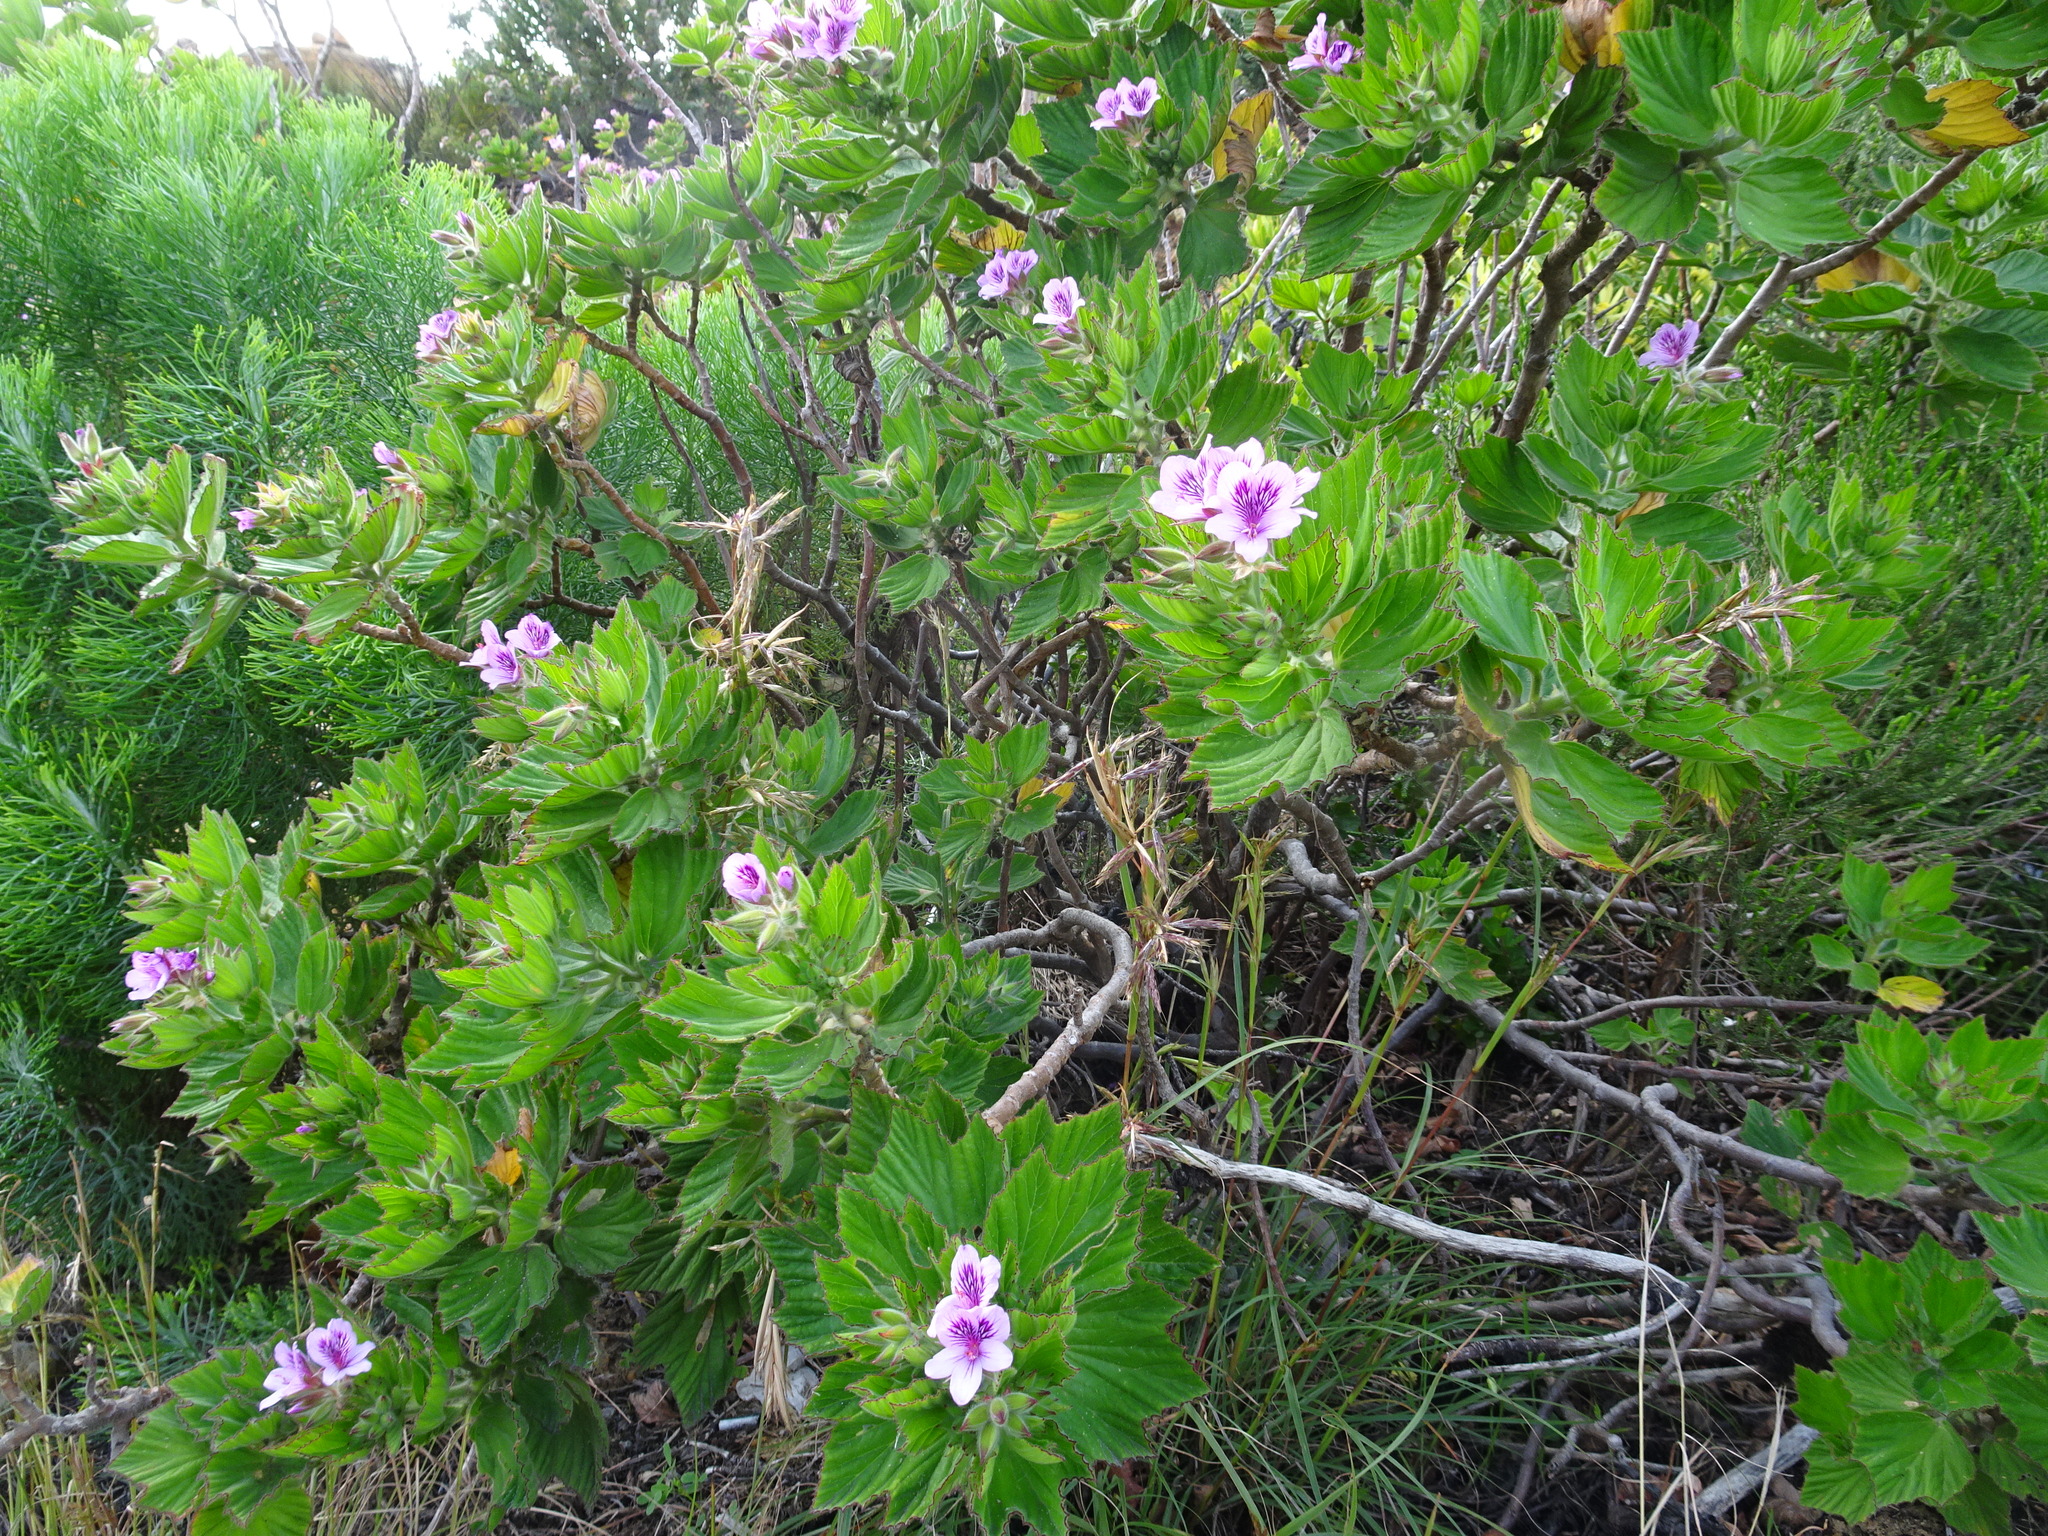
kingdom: Plantae
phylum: Tracheophyta
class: Magnoliopsida
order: Geraniales
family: Geraniaceae
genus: Pelargonium
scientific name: Pelargonium cucullatum
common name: Tree pelargonium
